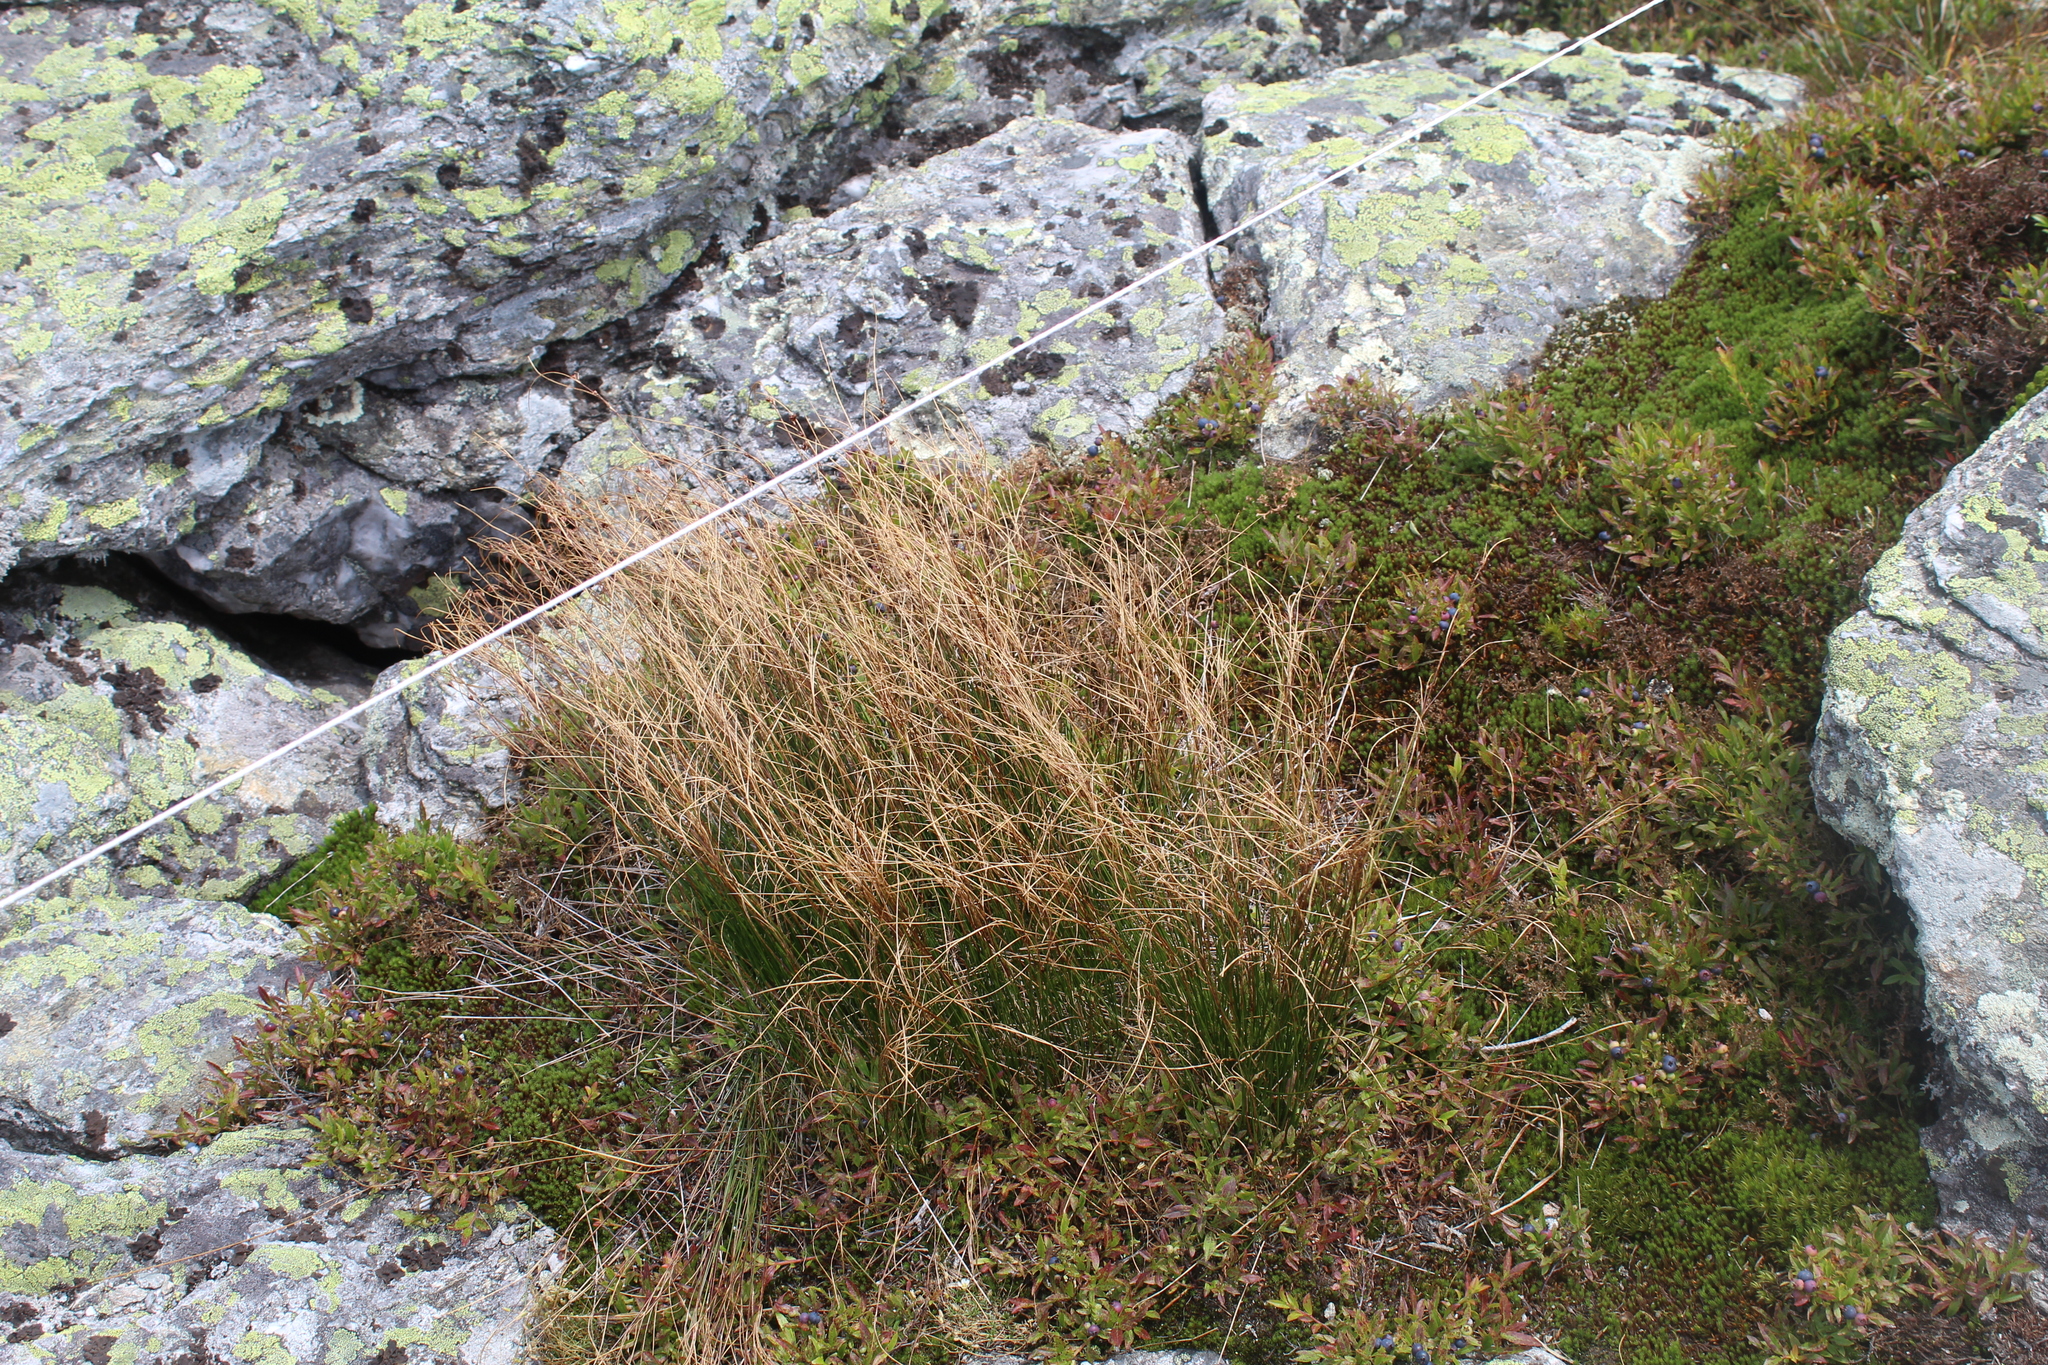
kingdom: Plantae
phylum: Tracheophyta
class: Liliopsida
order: Poales
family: Juncaceae
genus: Oreojuncus
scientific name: Oreojuncus trifidus
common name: Highland rush
